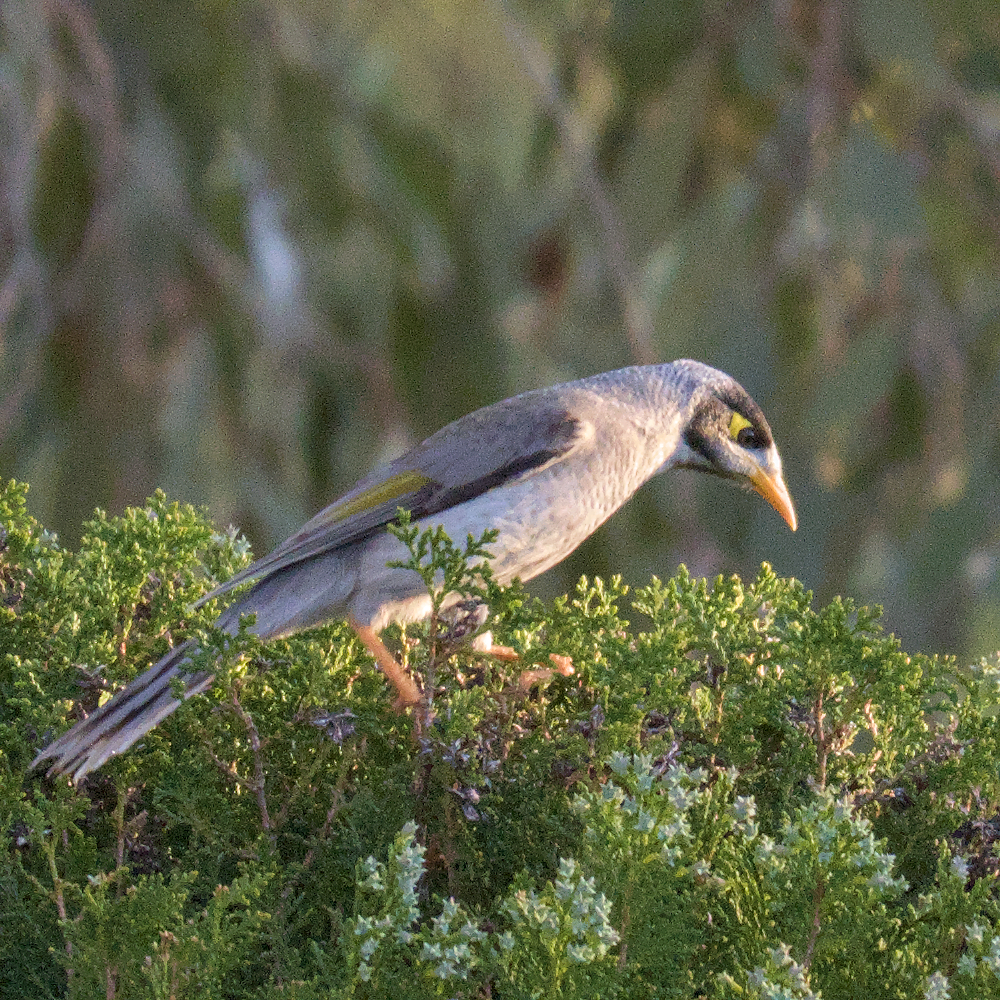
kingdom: Animalia
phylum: Chordata
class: Aves
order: Passeriformes
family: Meliphagidae
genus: Manorina
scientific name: Manorina melanocephala
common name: Noisy miner
